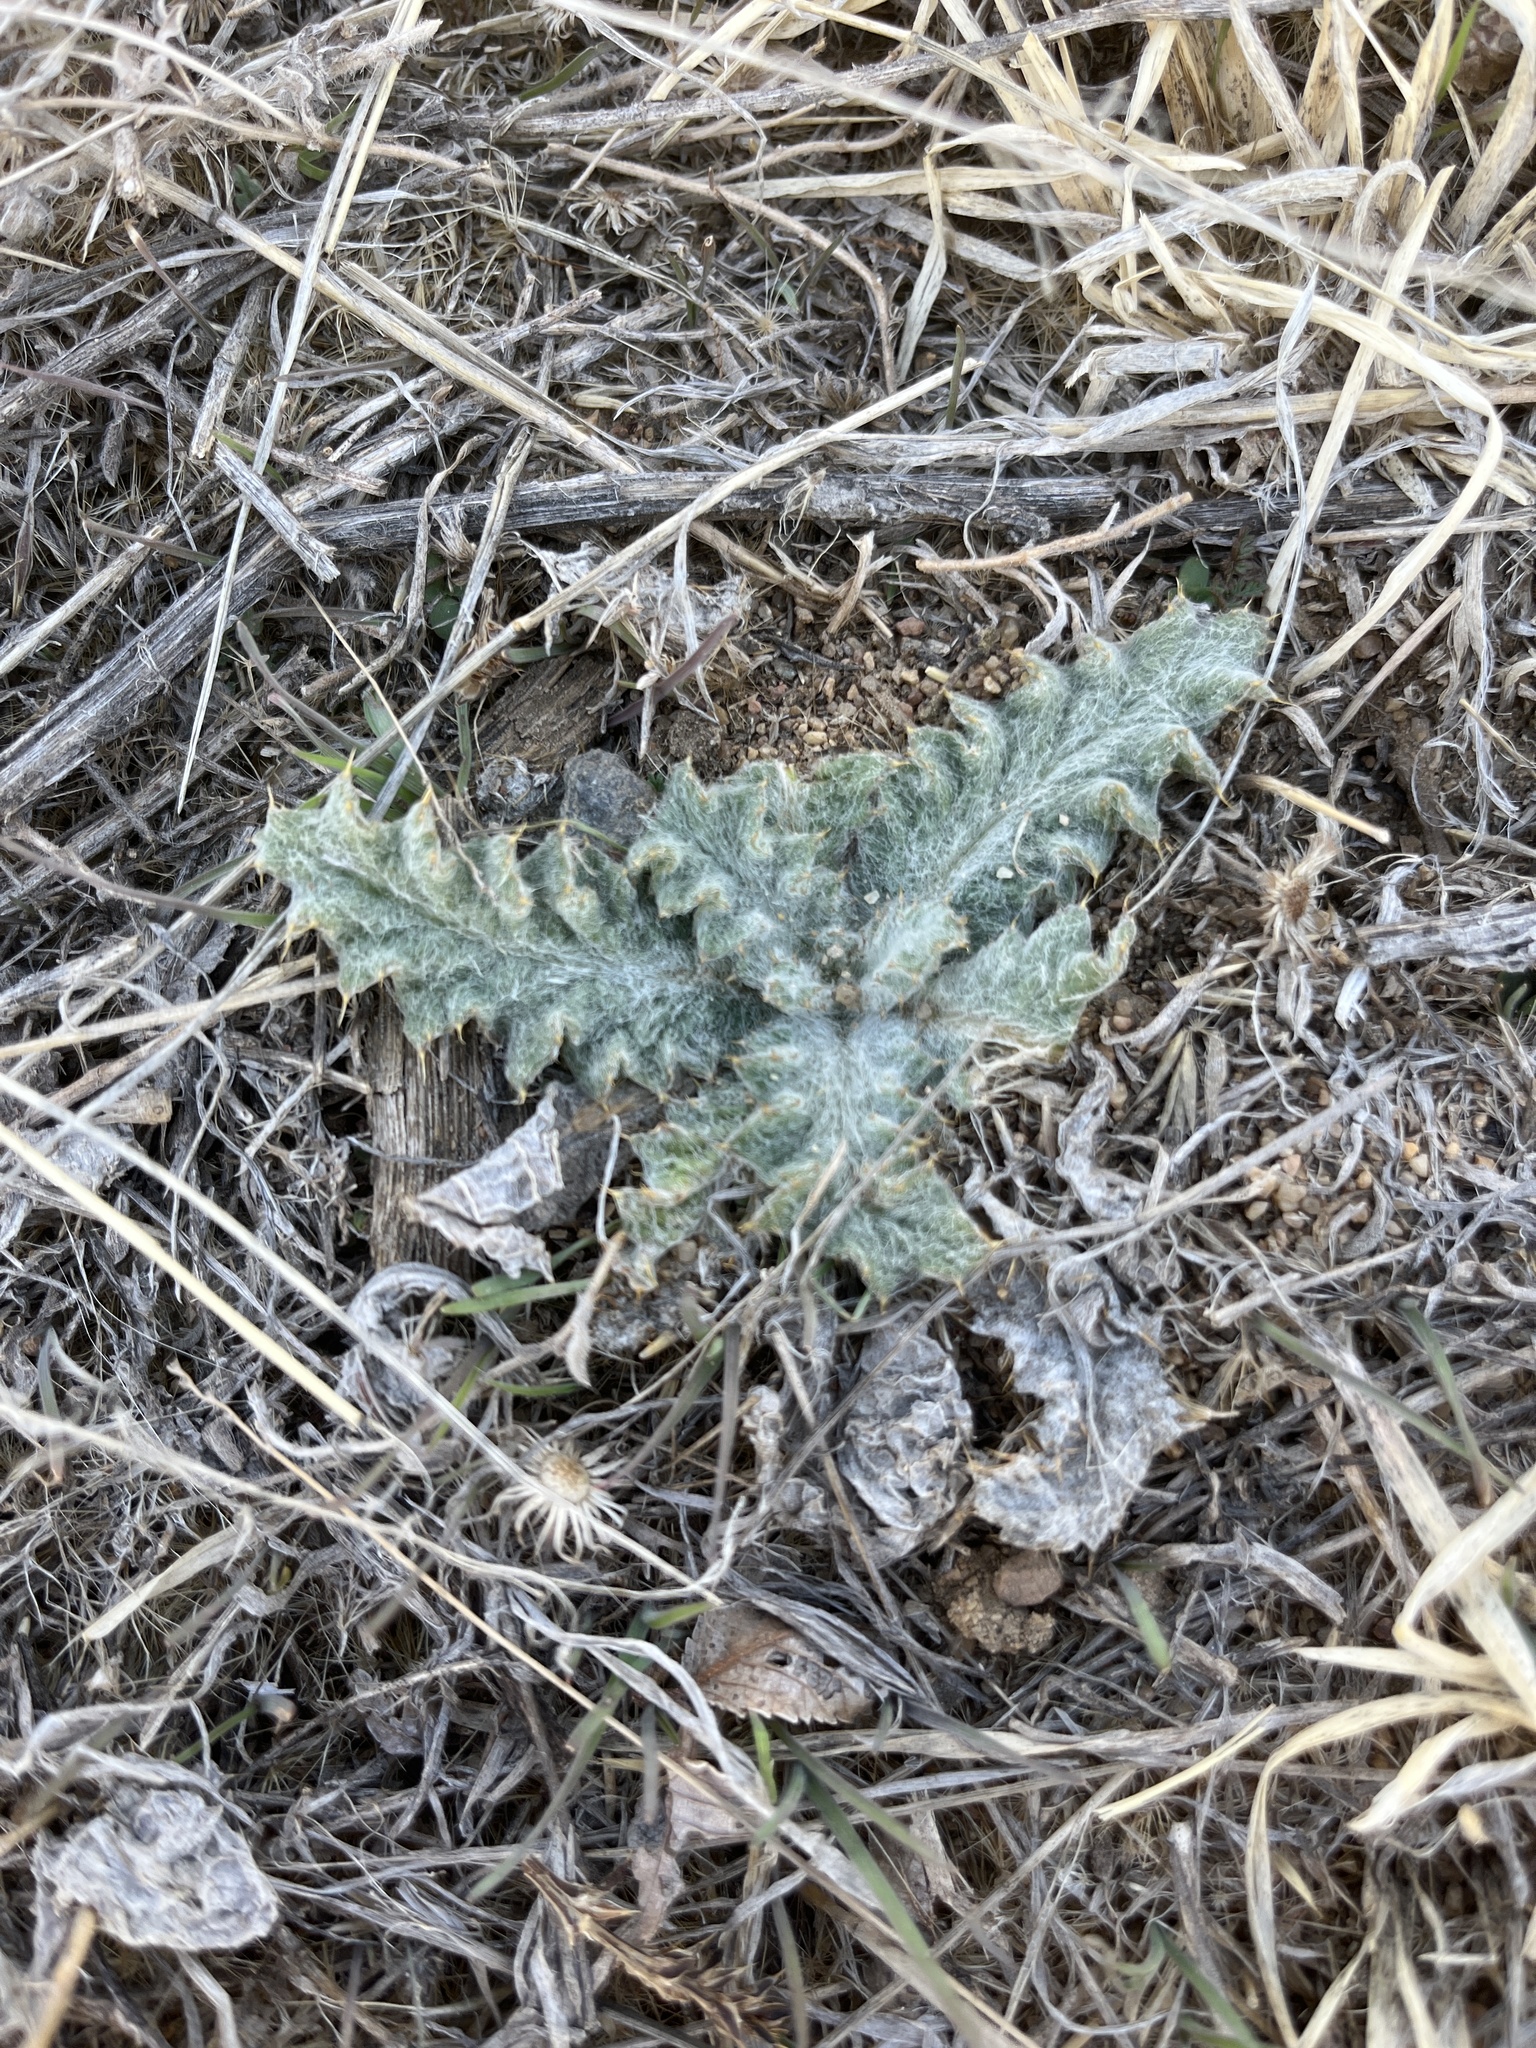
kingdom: Plantae
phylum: Tracheophyta
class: Magnoliopsida
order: Asterales
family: Asteraceae
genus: Onopordum
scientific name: Onopordum acanthium
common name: Scotch thistle
